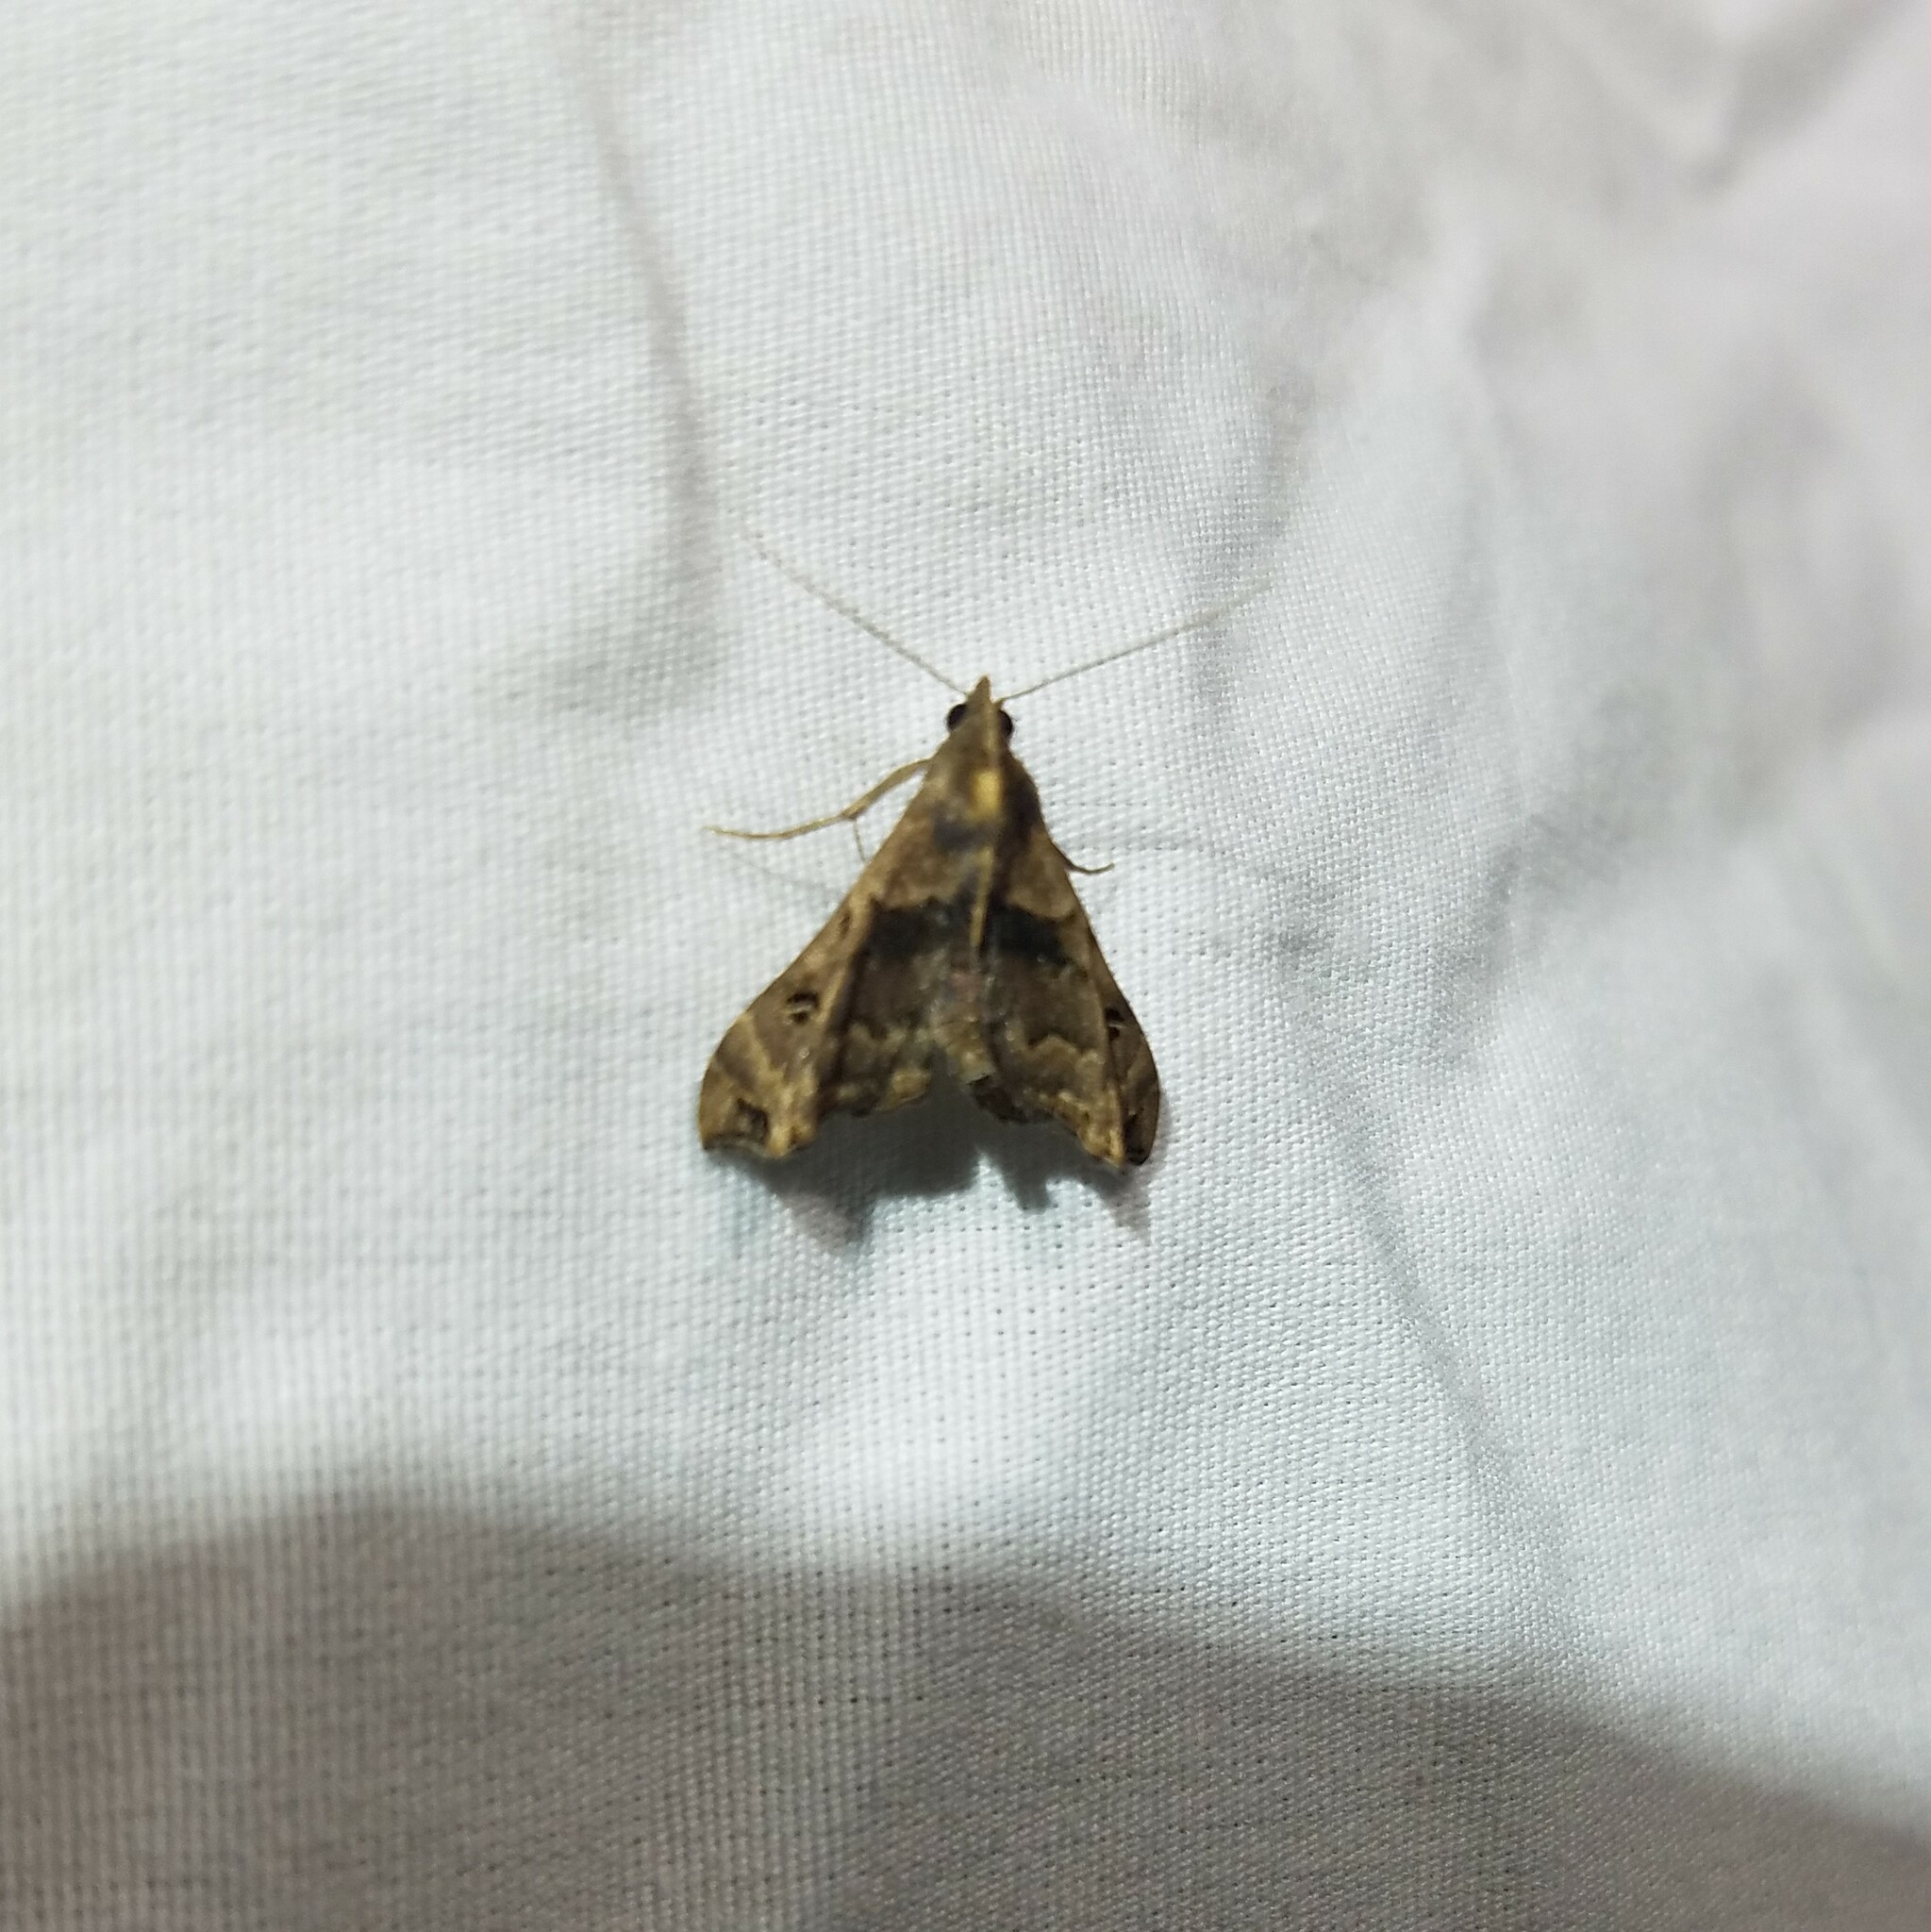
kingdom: Animalia
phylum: Arthropoda
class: Insecta
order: Lepidoptera
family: Erebidae
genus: Palthis
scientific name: Palthis asopialis
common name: Faint-spotted palthis moth
